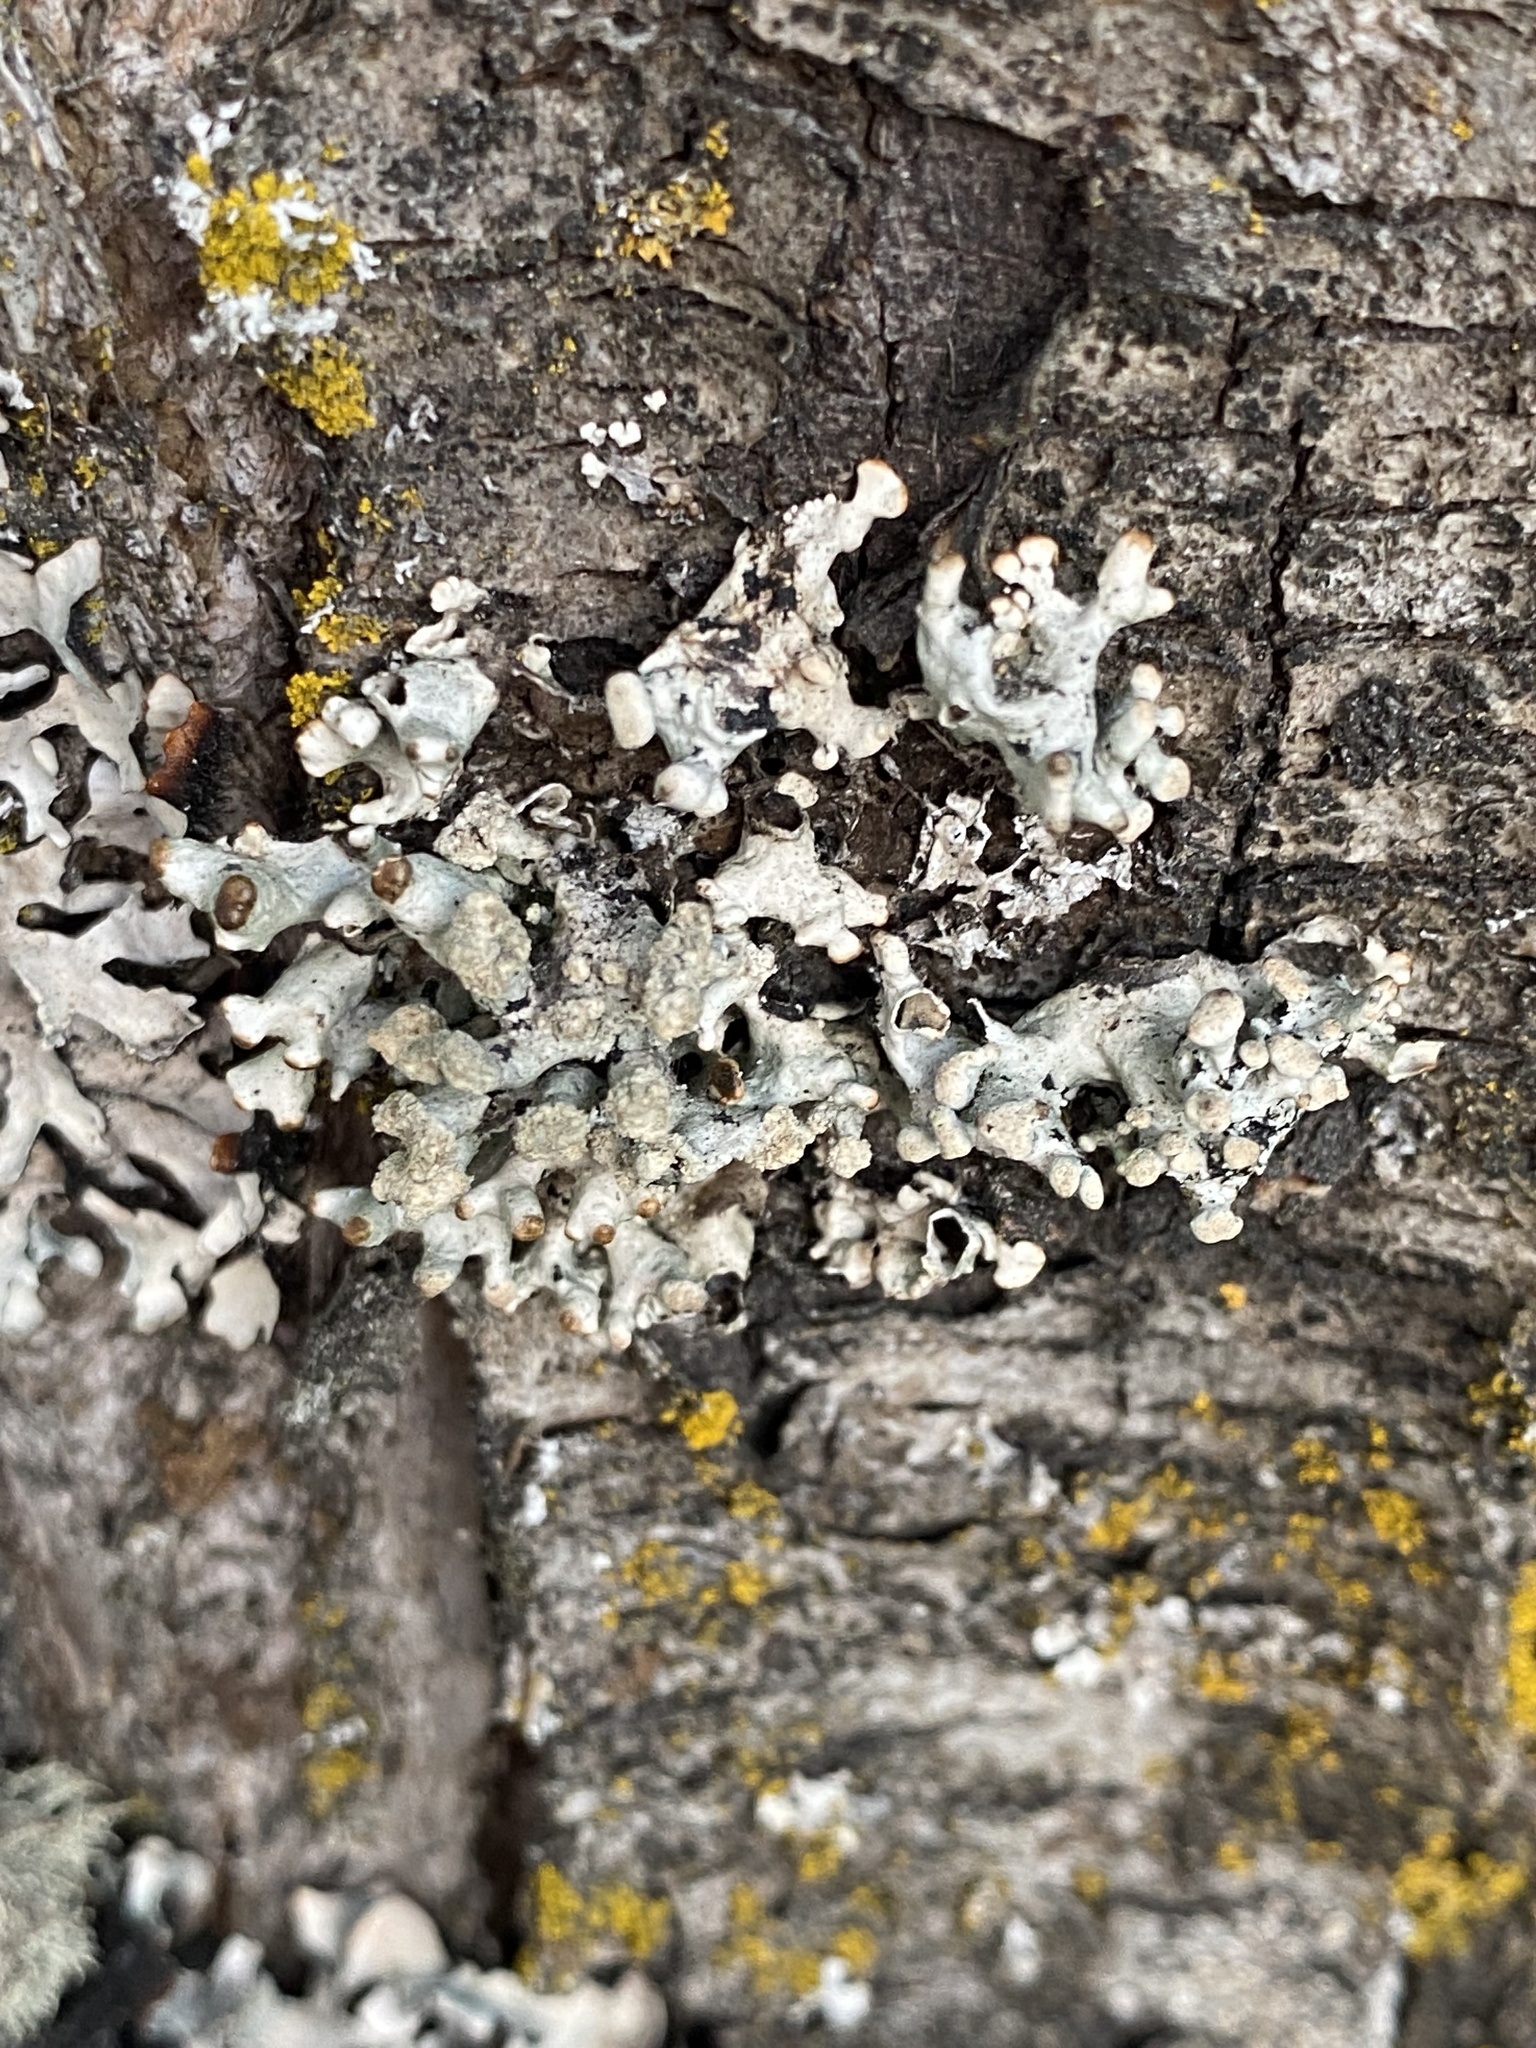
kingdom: Fungi
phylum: Ascomycota
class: Lecanoromycetes
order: Lecanorales
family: Parmeliaceae
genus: Hypogymnia
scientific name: Hypogymnia tubulosa
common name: Powder-headed tube lichen
